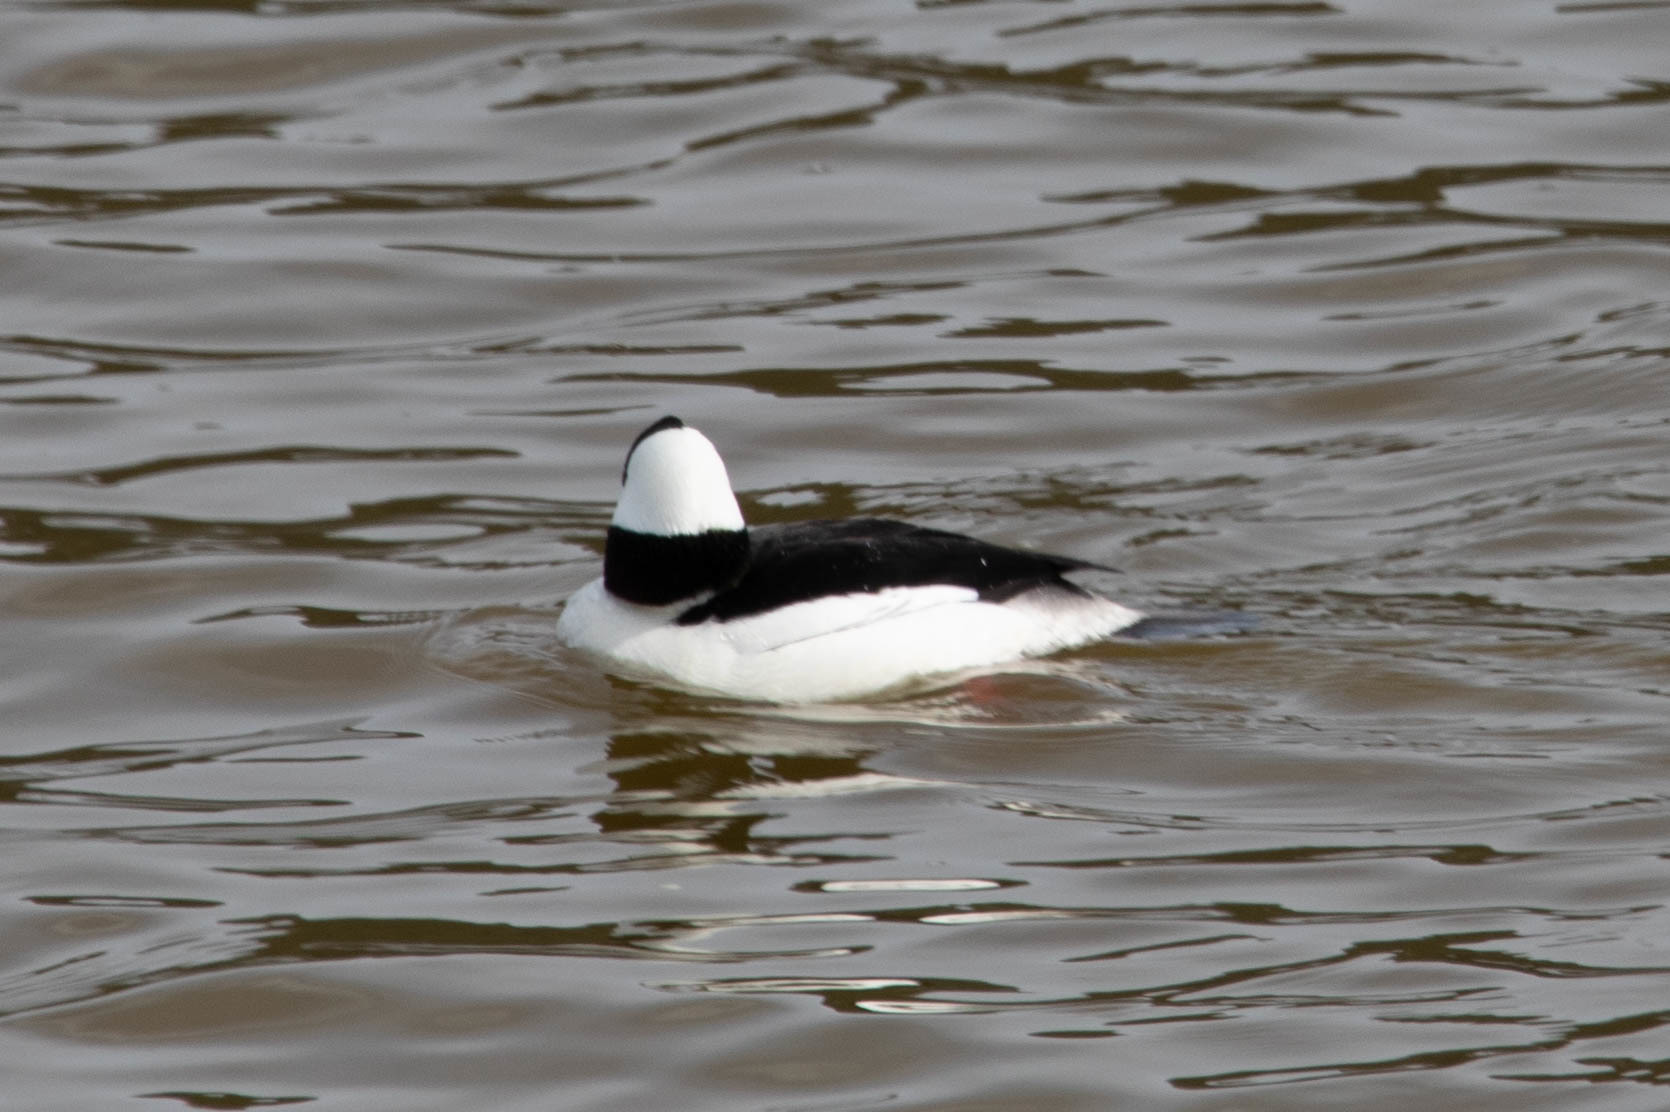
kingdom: Animalia
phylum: Chordata
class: Aves
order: Anseriformes
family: Anatidae
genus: Bucephala
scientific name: Bucephala albeola
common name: Bufflehead
